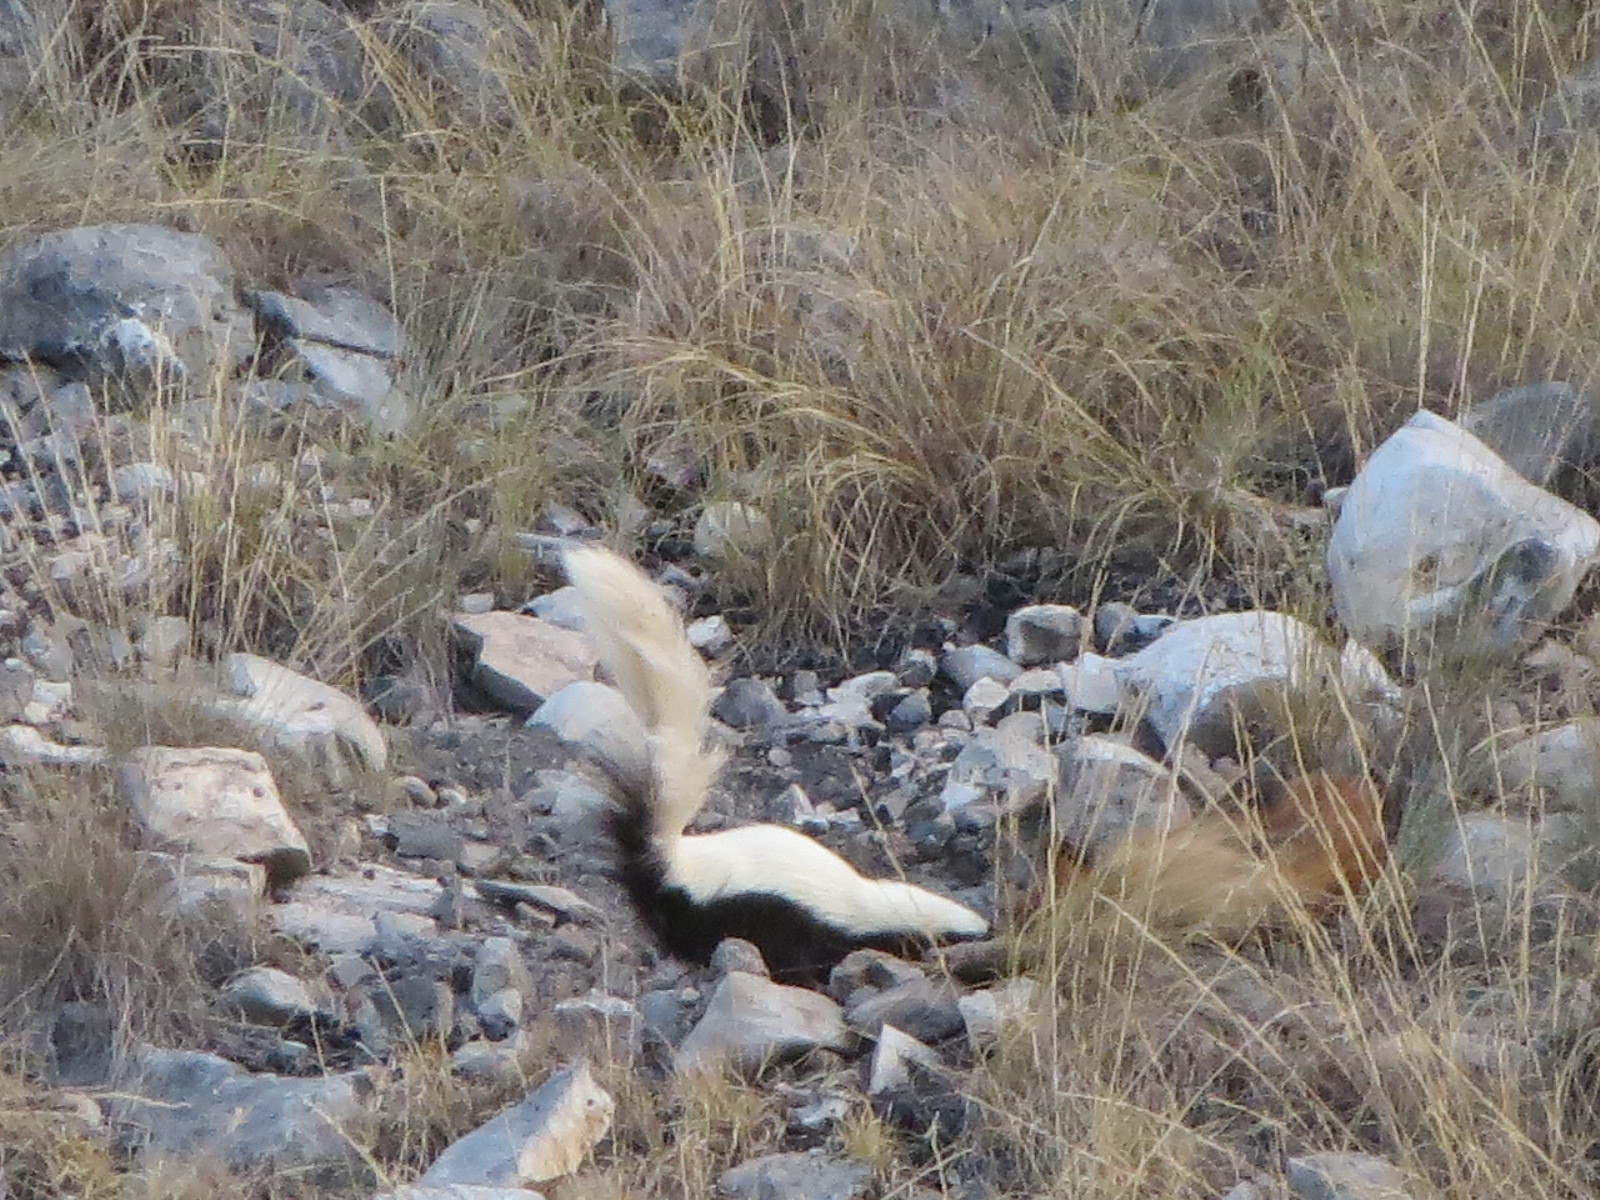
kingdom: Animalia
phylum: Chordata
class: Mammalia
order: Carnivora
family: Mephitidae
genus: Conepatus
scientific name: Conepatus leuconotus
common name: Eastern hog-nosed skunk
